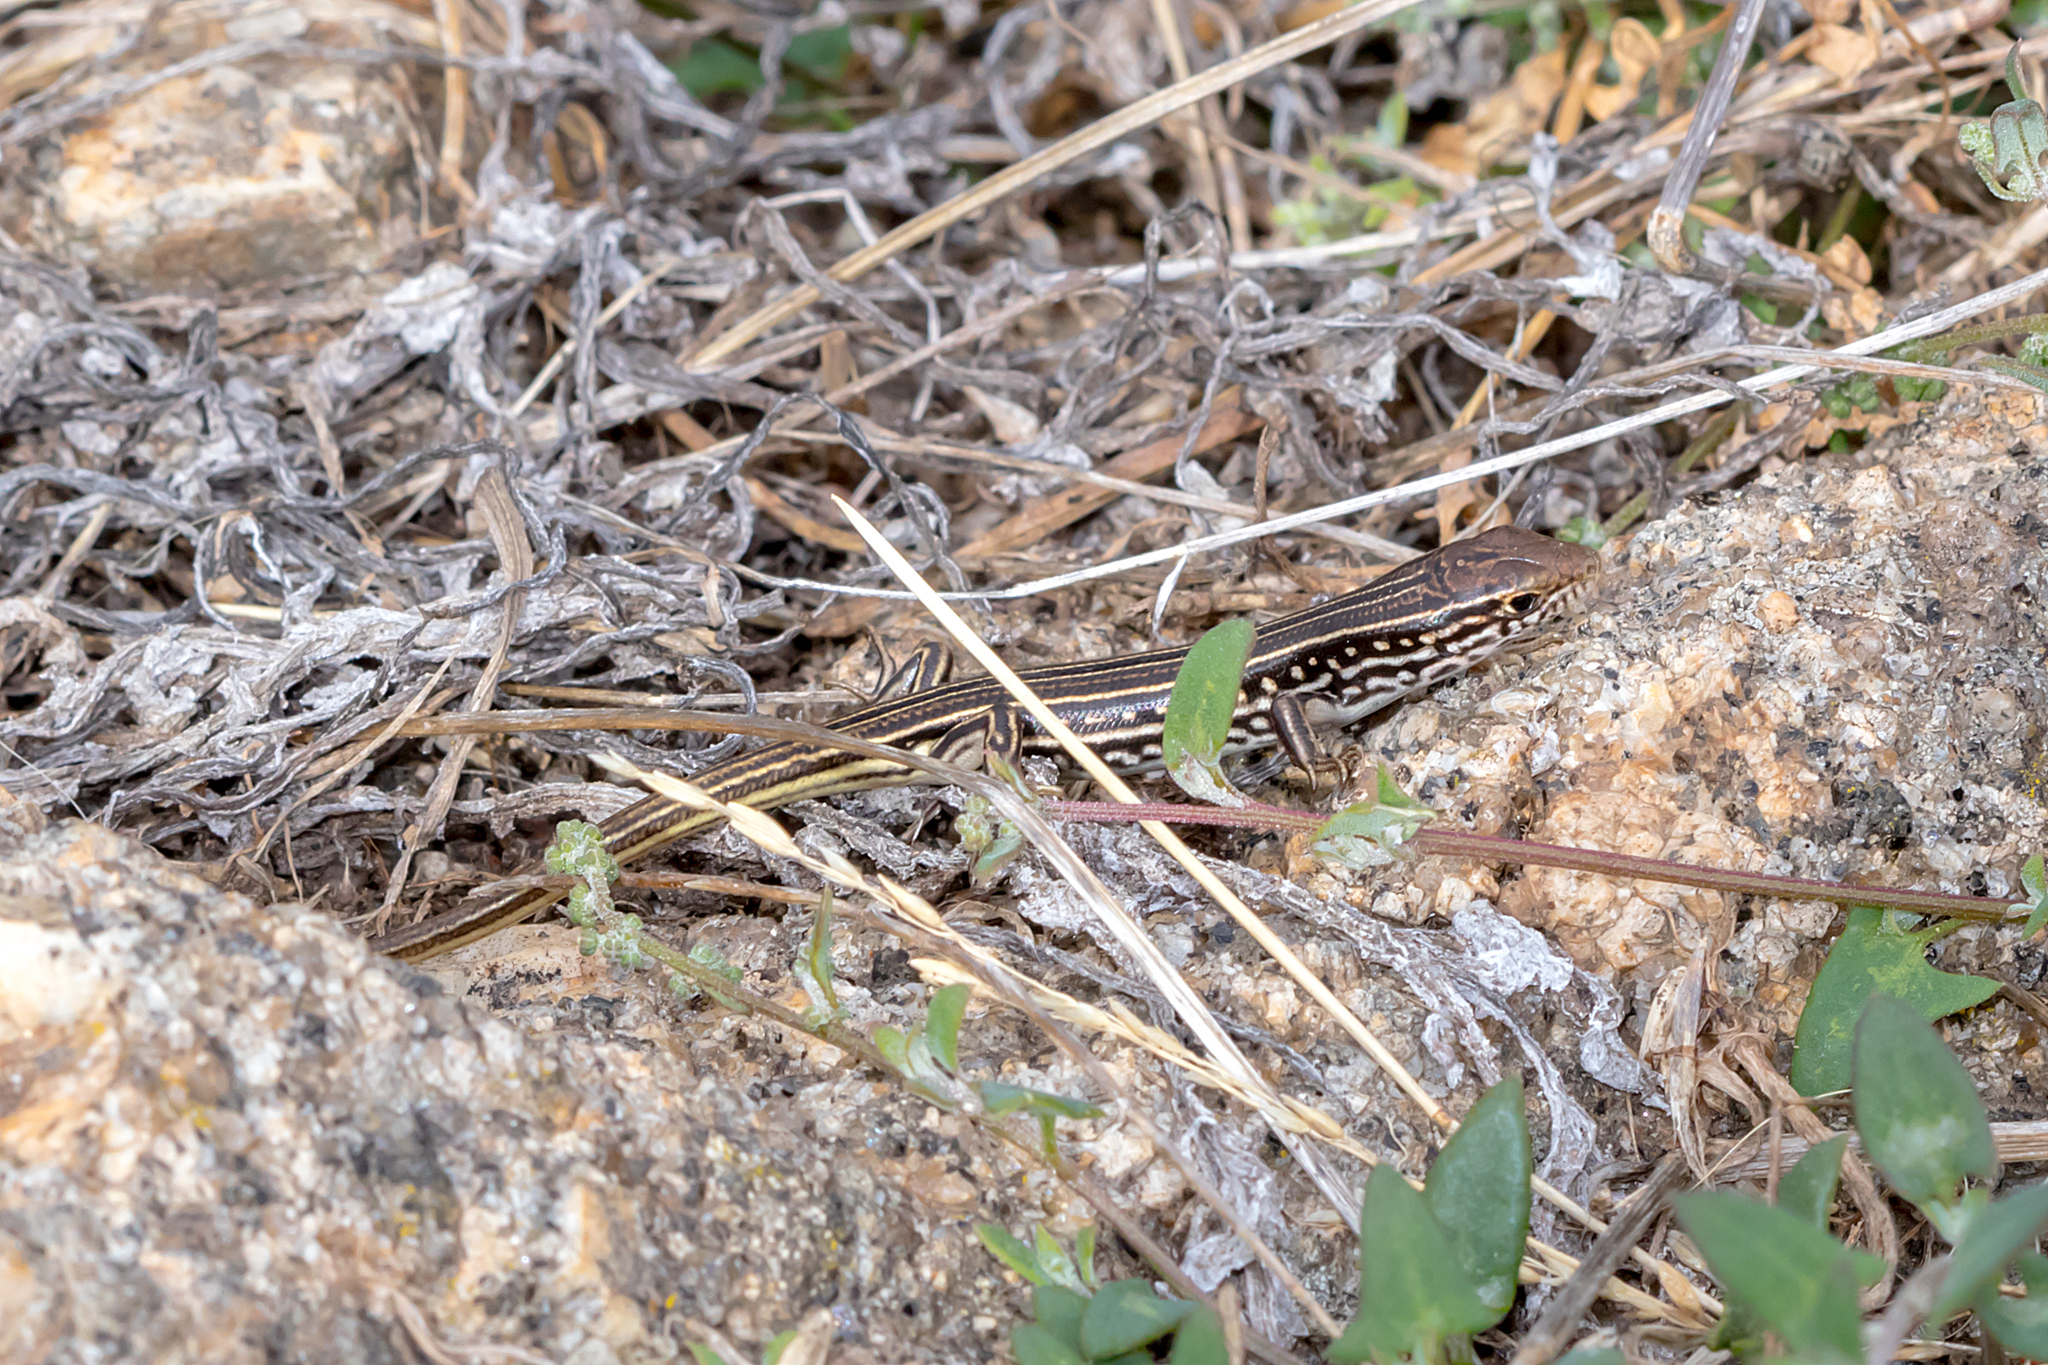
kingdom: Animalia
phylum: Chordata
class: Squamata
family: Scincidae
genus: Ctenotus
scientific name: Ctenotus robustus
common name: Robust ctenotus
